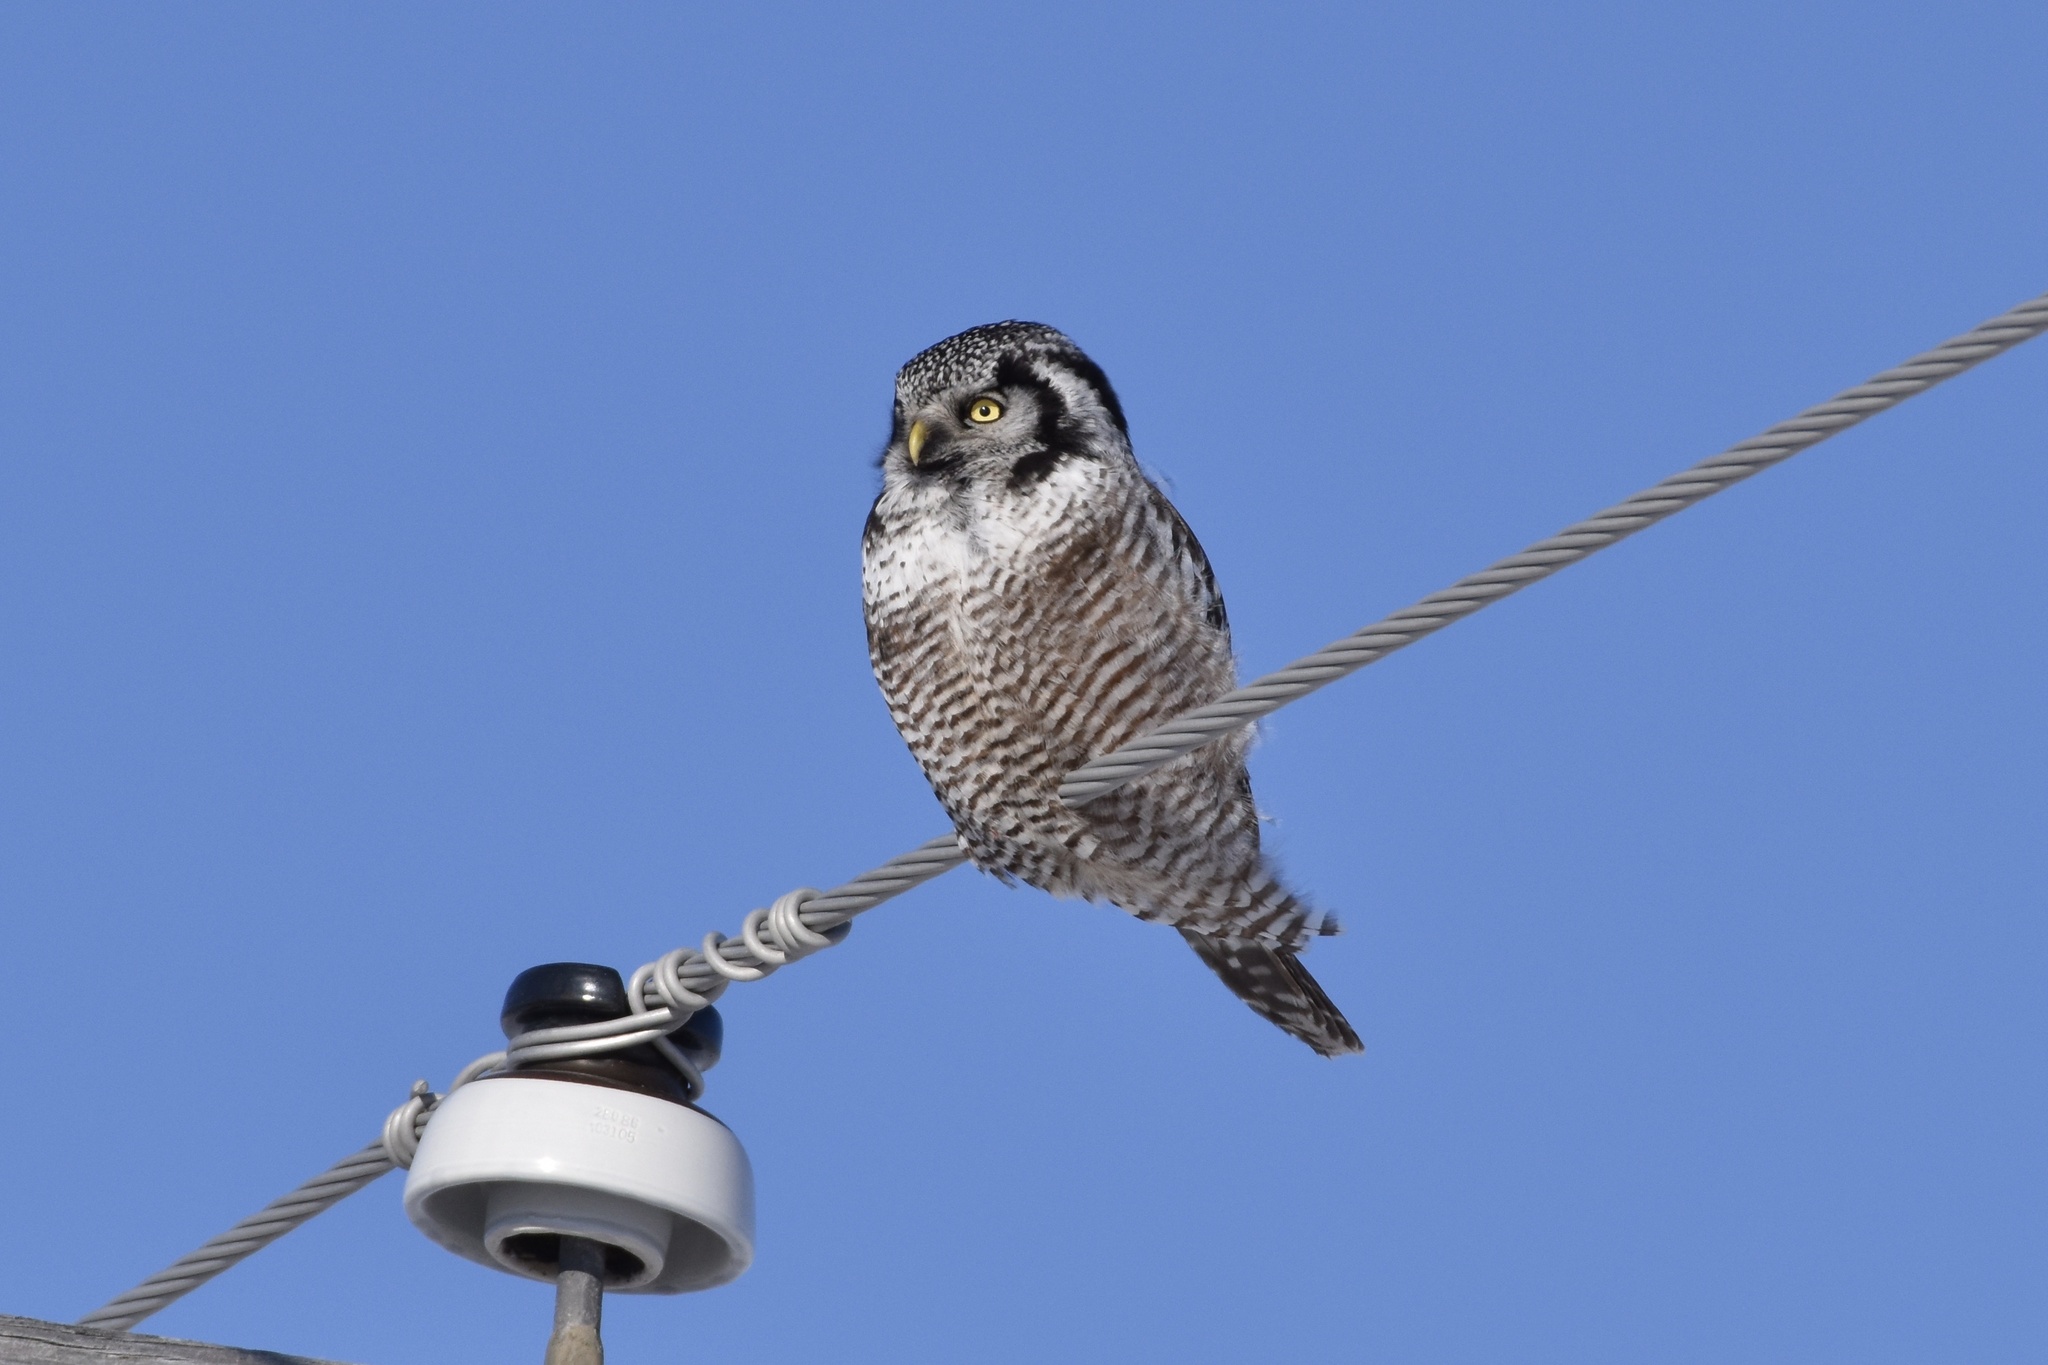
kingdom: Animalia
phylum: Chordata
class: Aves
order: Strigiformes
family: Strigidae
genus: Surnia
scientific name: Surnia ulula
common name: Northern hawk-owl
